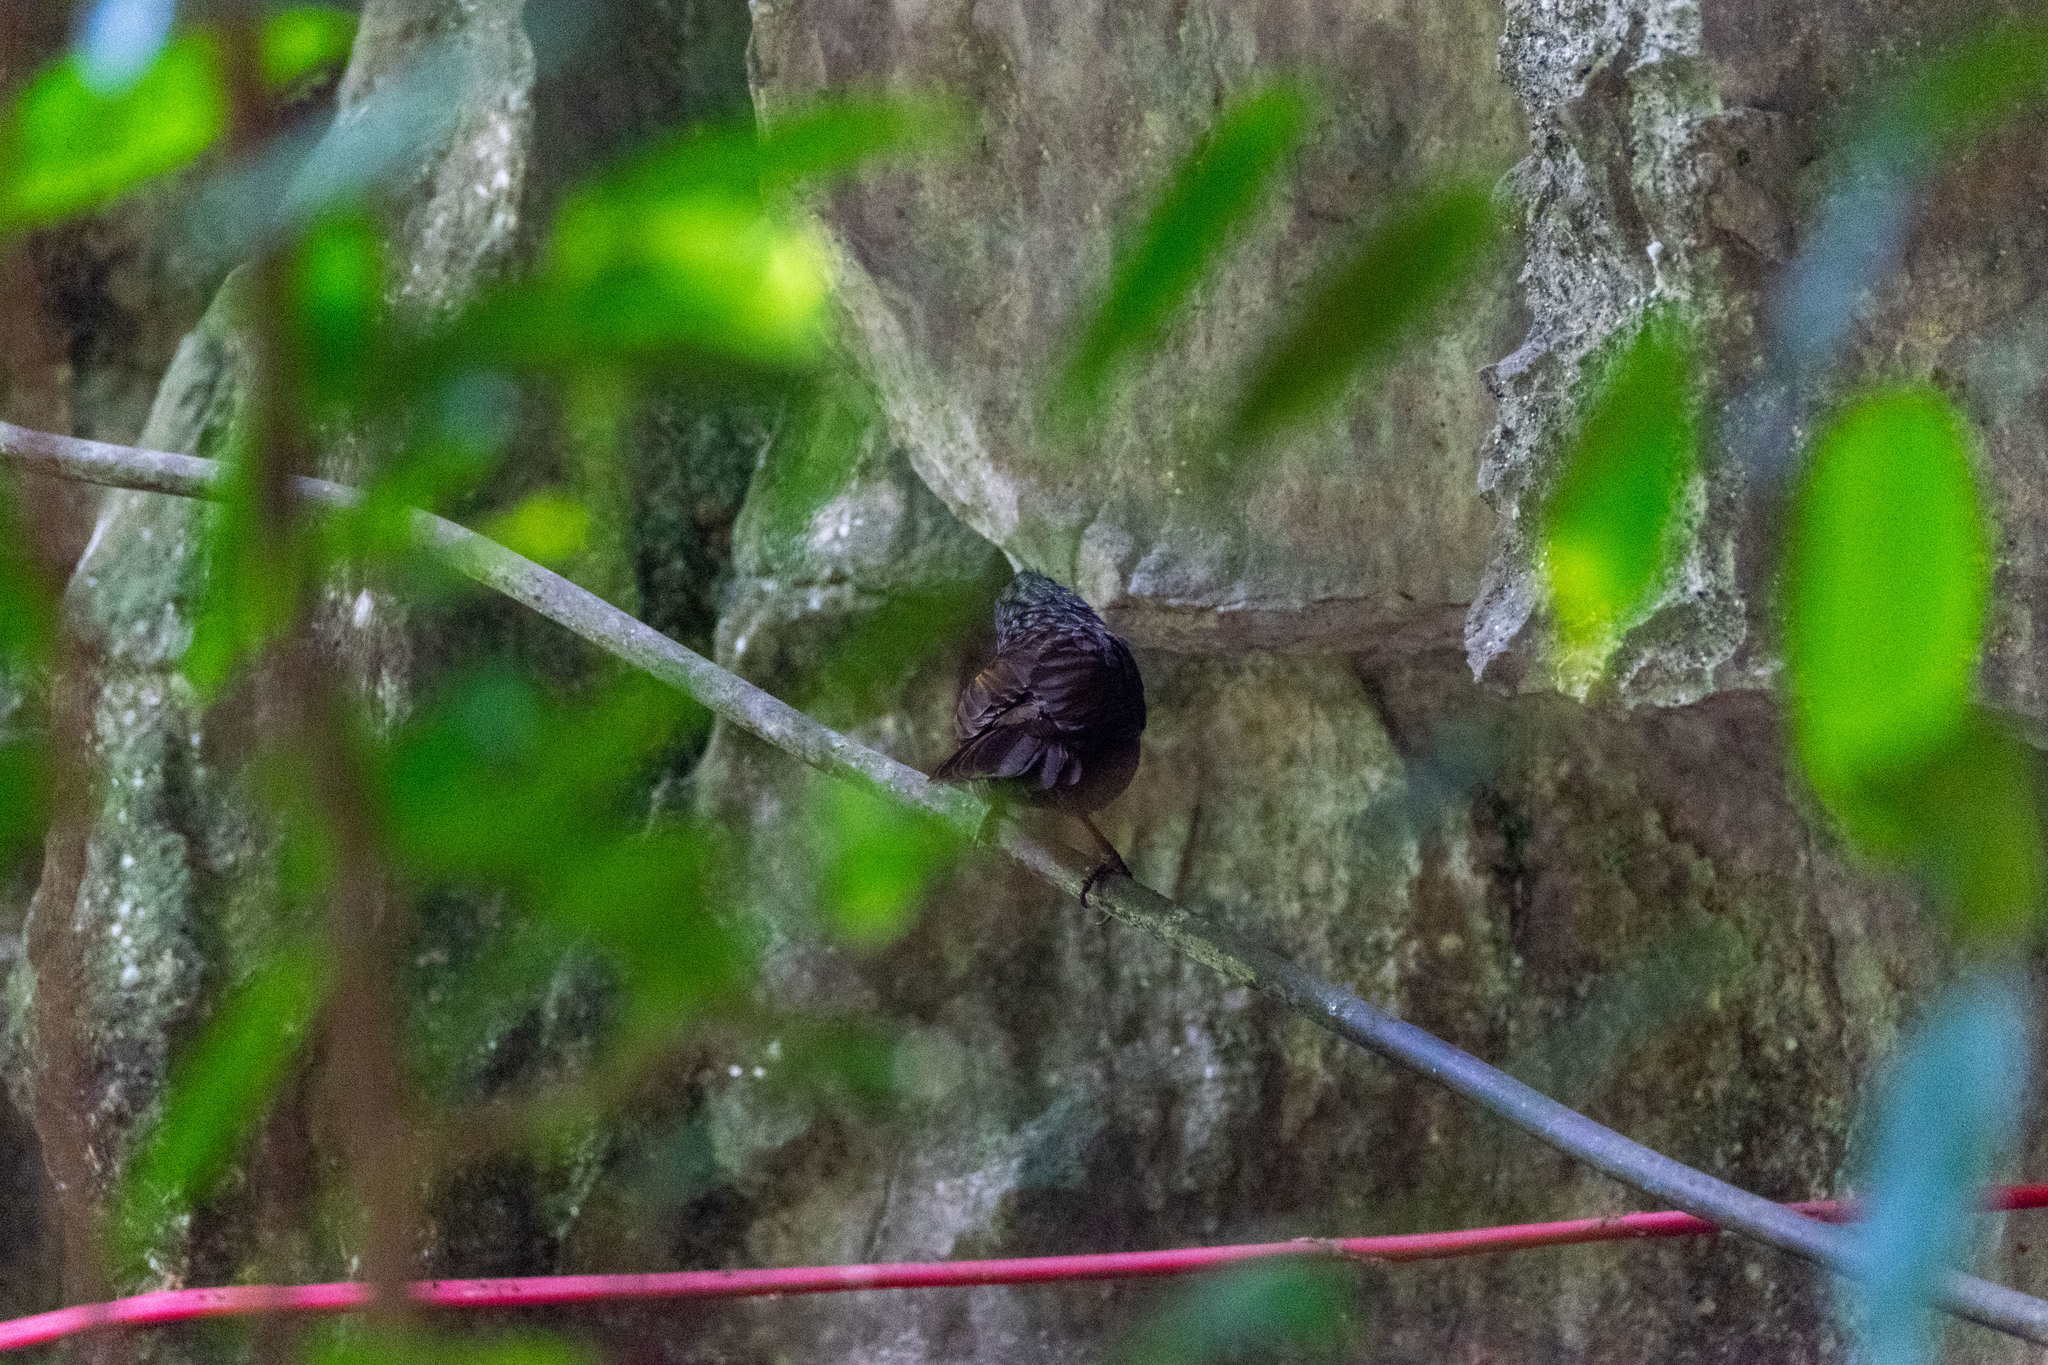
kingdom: Animalia
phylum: Chordata
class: Aves
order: Passeriformes
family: Pellorneidae
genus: Napothera
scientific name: Napothera crispifrons
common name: Limestone wren-babbler
